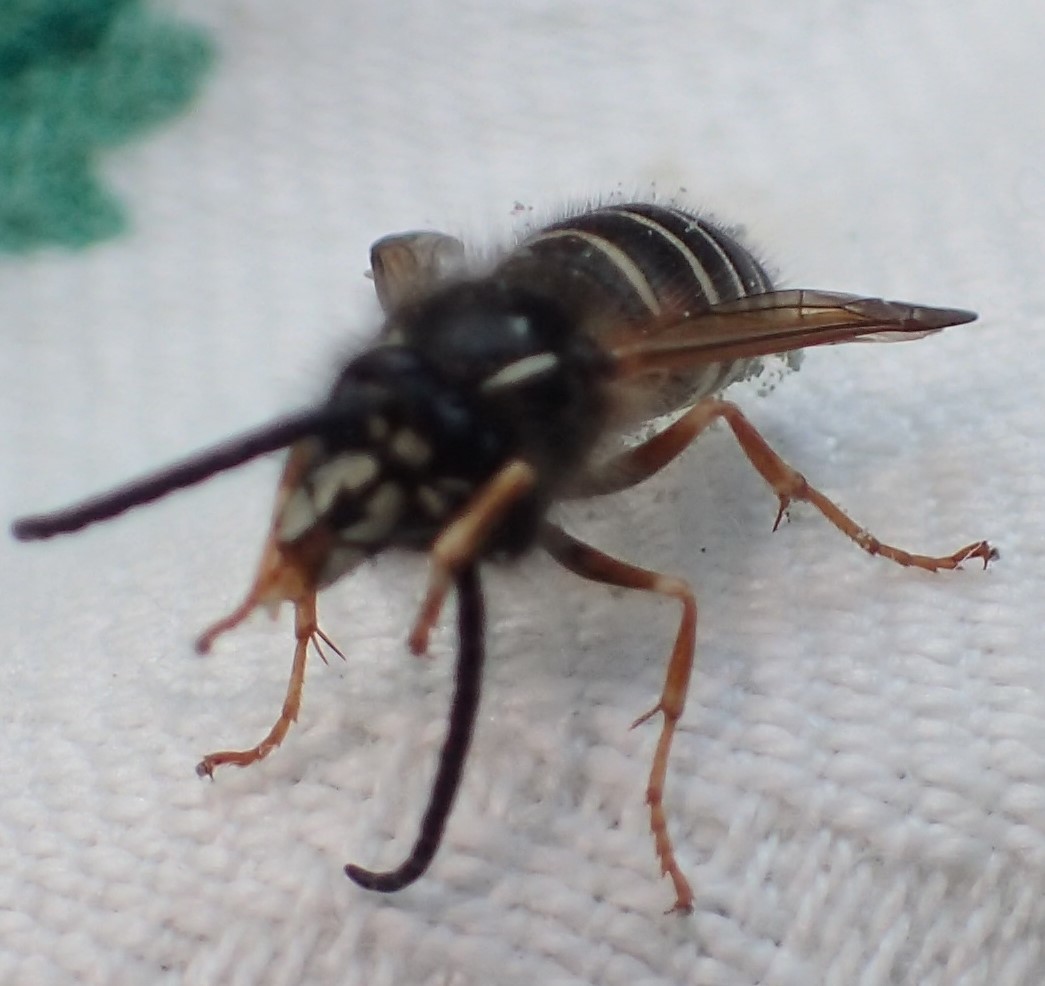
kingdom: Animalia
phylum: Arthropoda
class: Insecta
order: Hymenoptera
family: Vespidae
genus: Dolichovespula
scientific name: Dolichovespula norwegica
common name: Norwegian wasp
